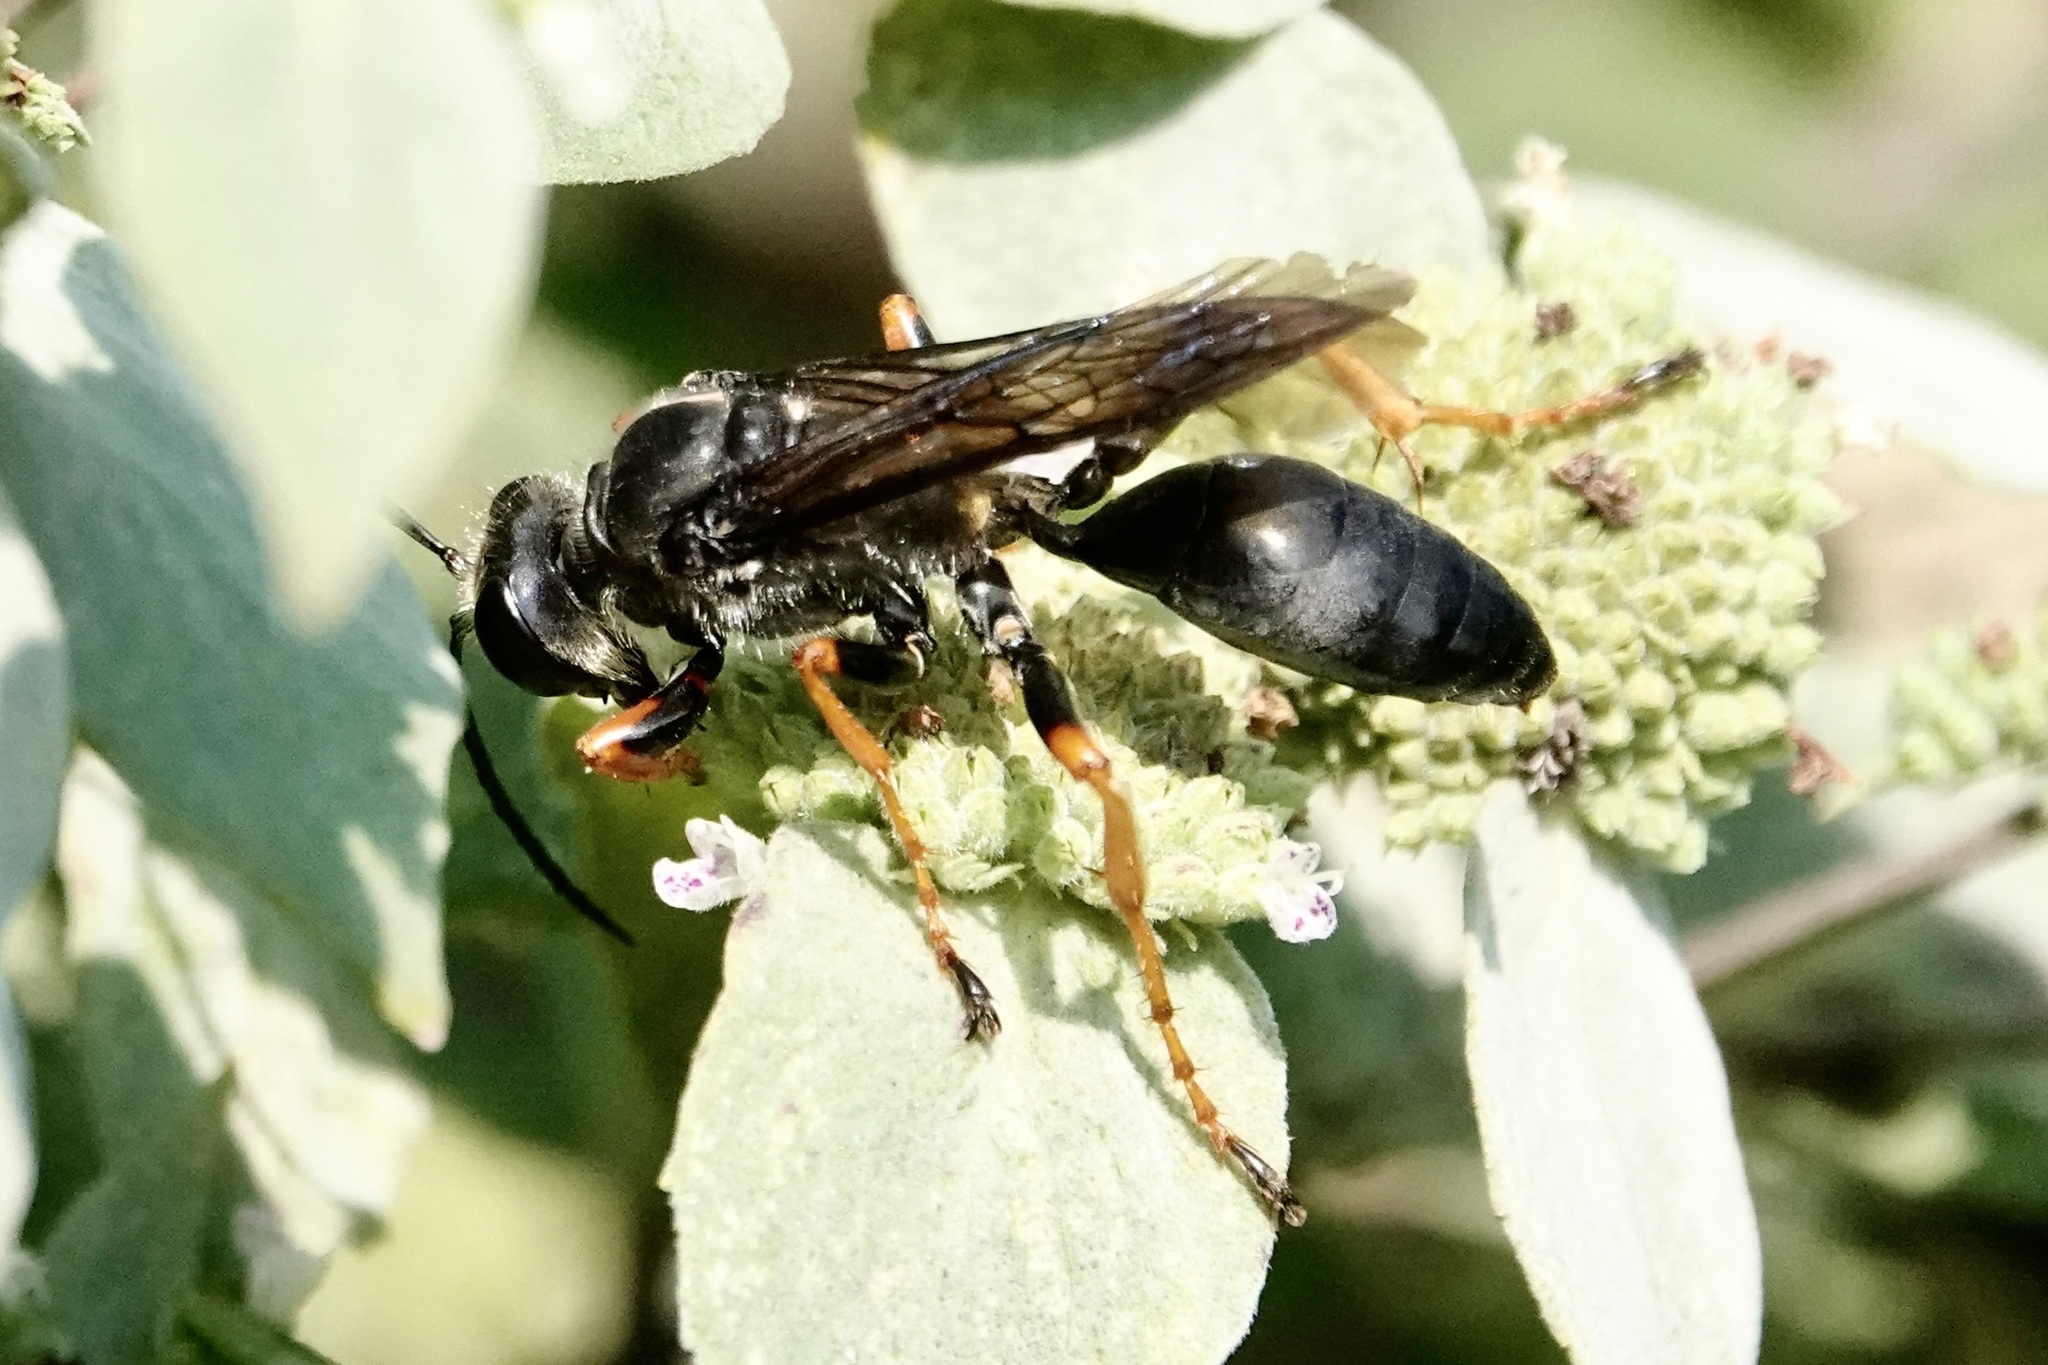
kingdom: Animalia
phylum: Arthropoda
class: Insecta
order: Hymenoptera
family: Sphecidae
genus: Sphex
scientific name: Sphex nudus
